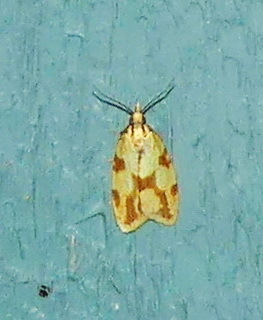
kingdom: Animalia
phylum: Arthropoda
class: Insecta
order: Lepidoptera
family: Tortricidae
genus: Sparganothis
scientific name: Sparganothis sulfureana
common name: Sparganothis fruitworm moth
